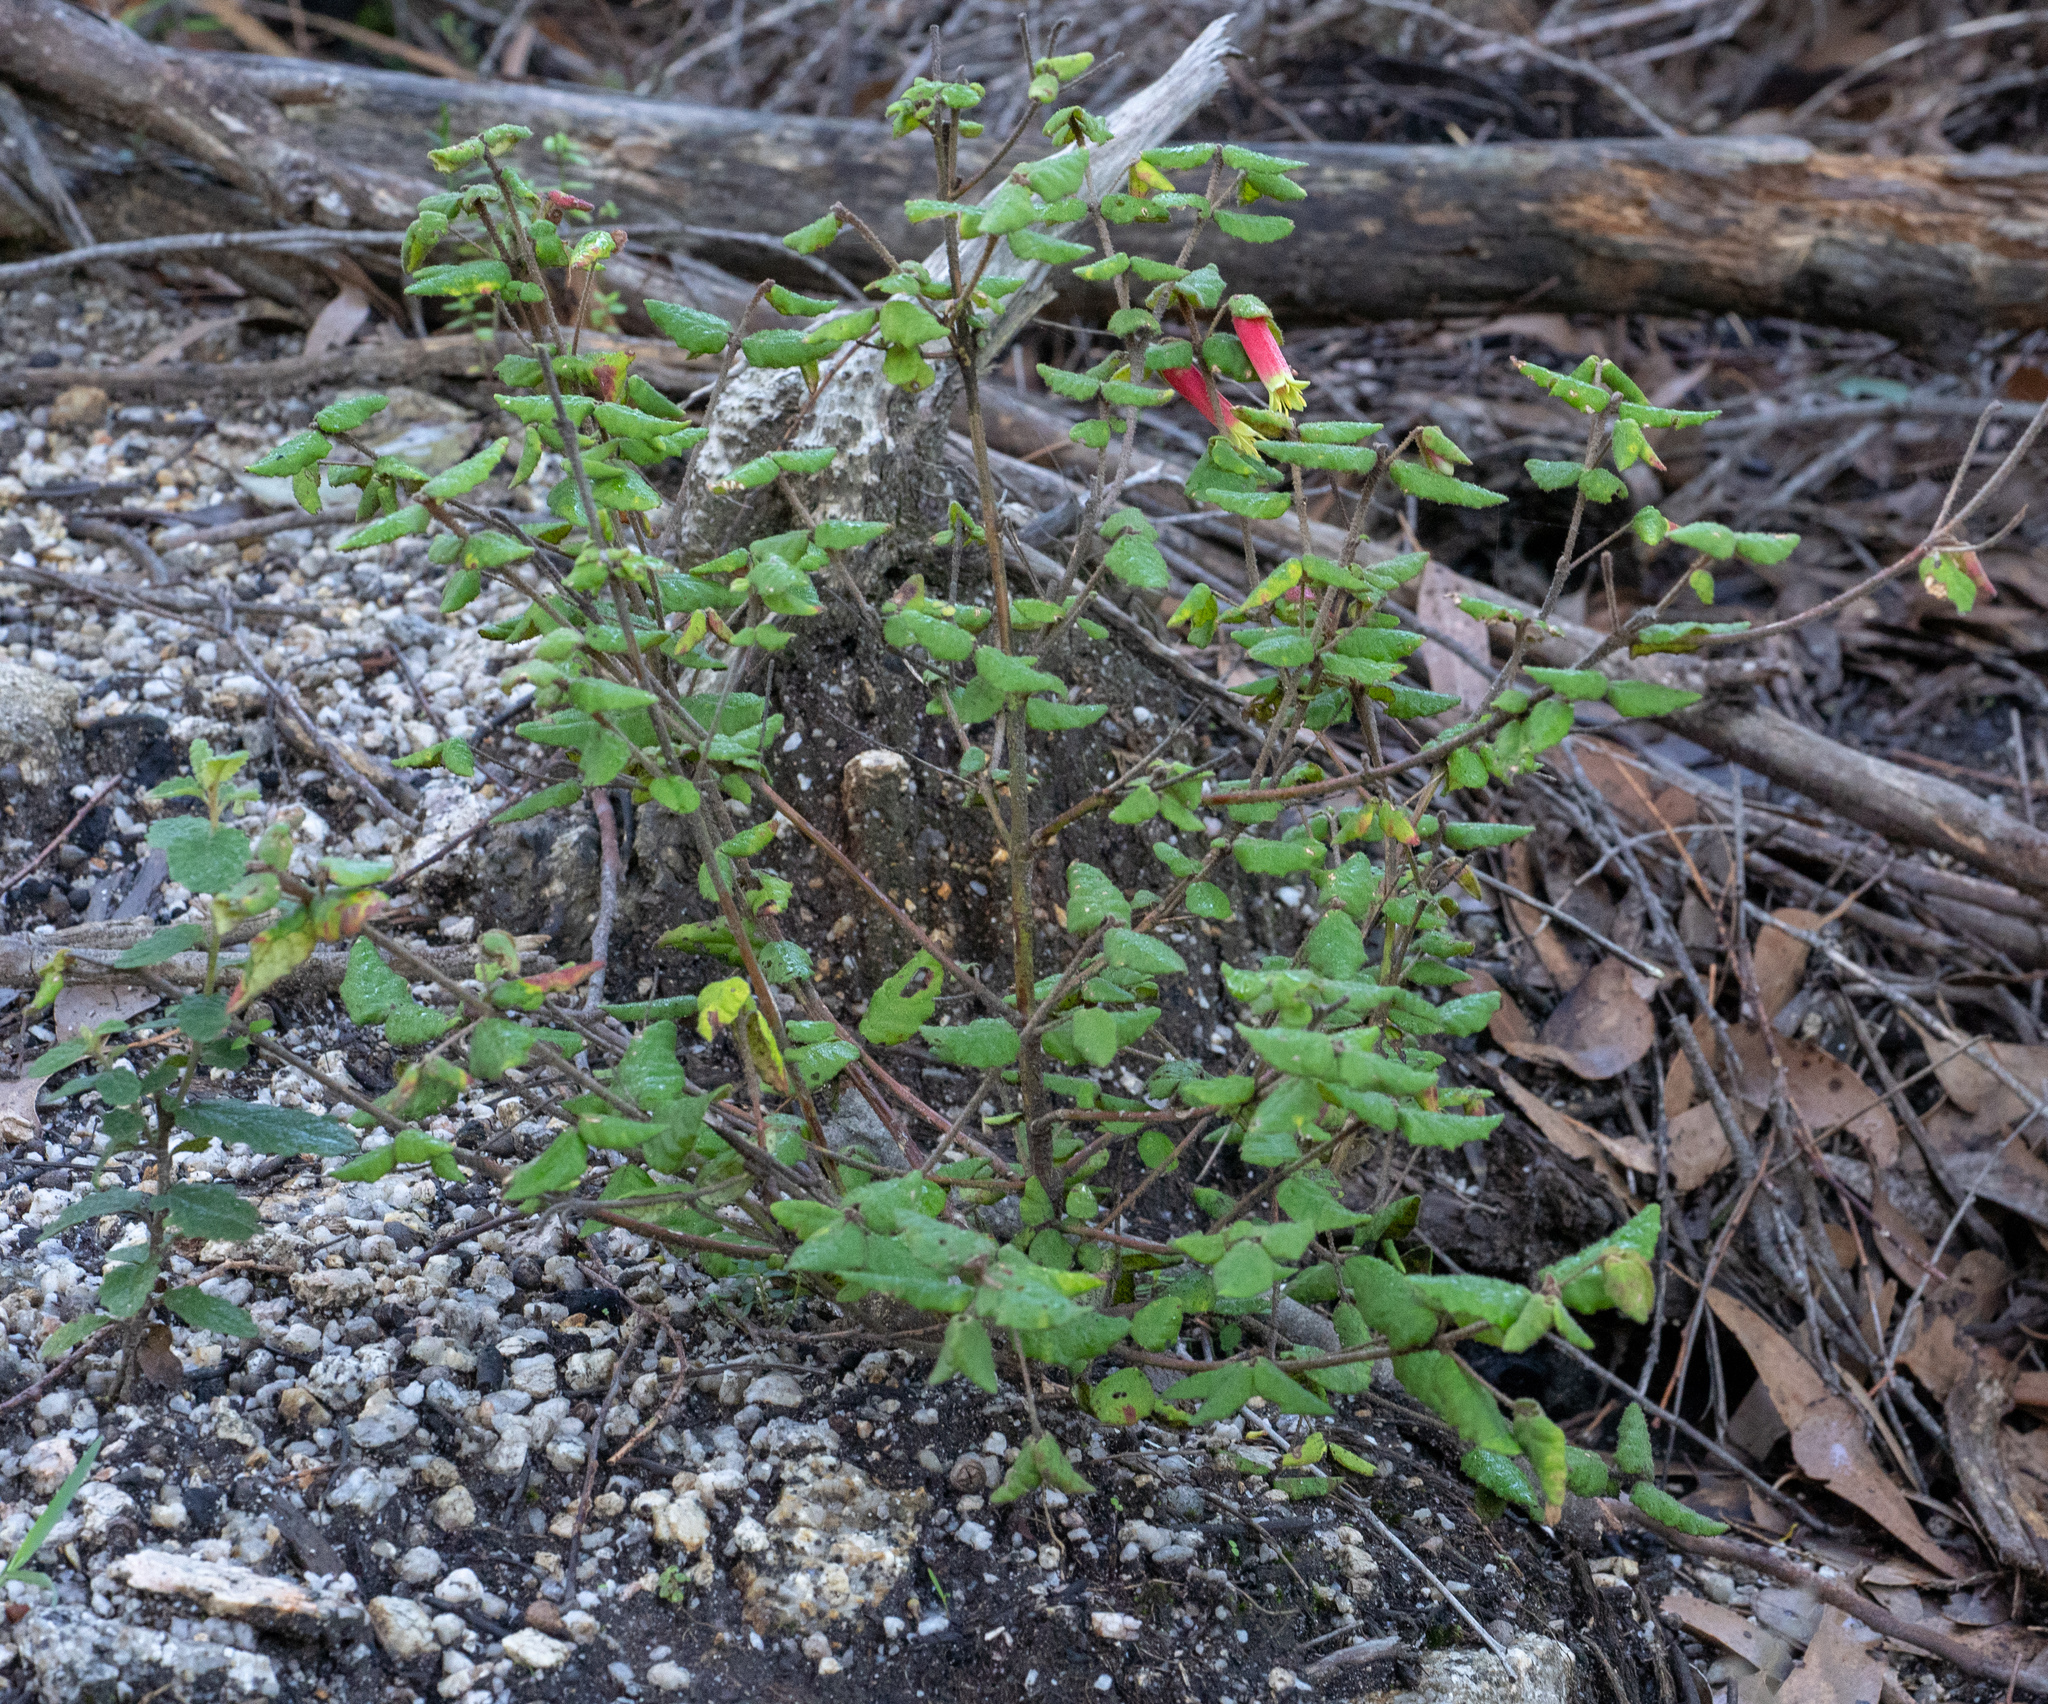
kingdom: Plantae
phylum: Tracheophyta
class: Magnoliopsida
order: Sapindales
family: Rutaceae
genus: Correa
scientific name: Correa reflexa
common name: Common correa
